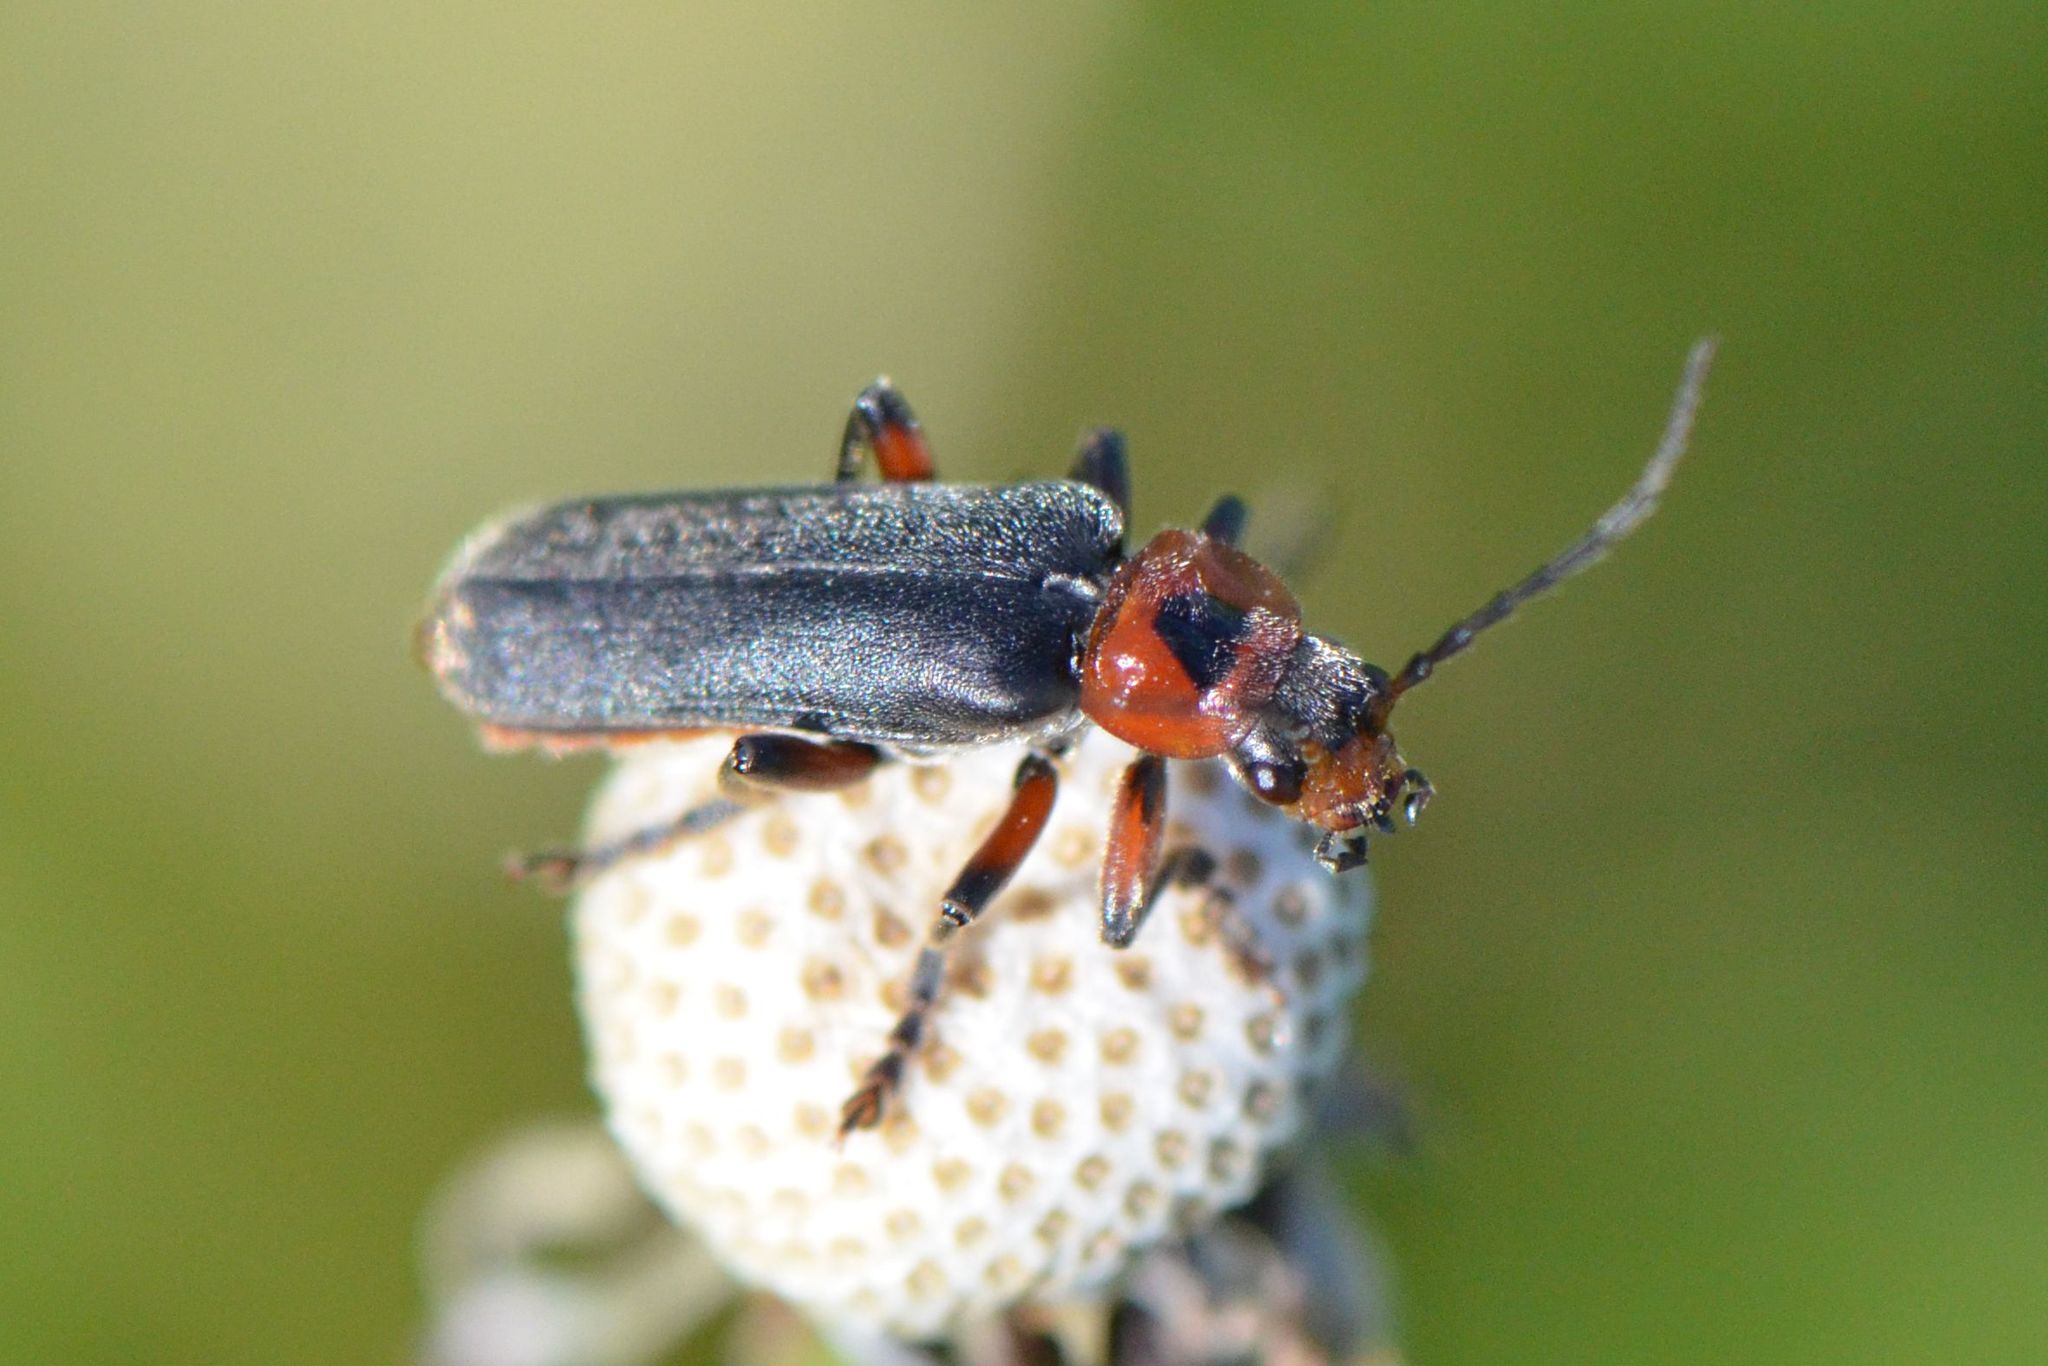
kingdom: Animalia
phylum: Arthropoda
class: Insecta
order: Coleoptera
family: Cantharidae
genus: Cantharis
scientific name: Cantharis rustica
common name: Soldier beetle
